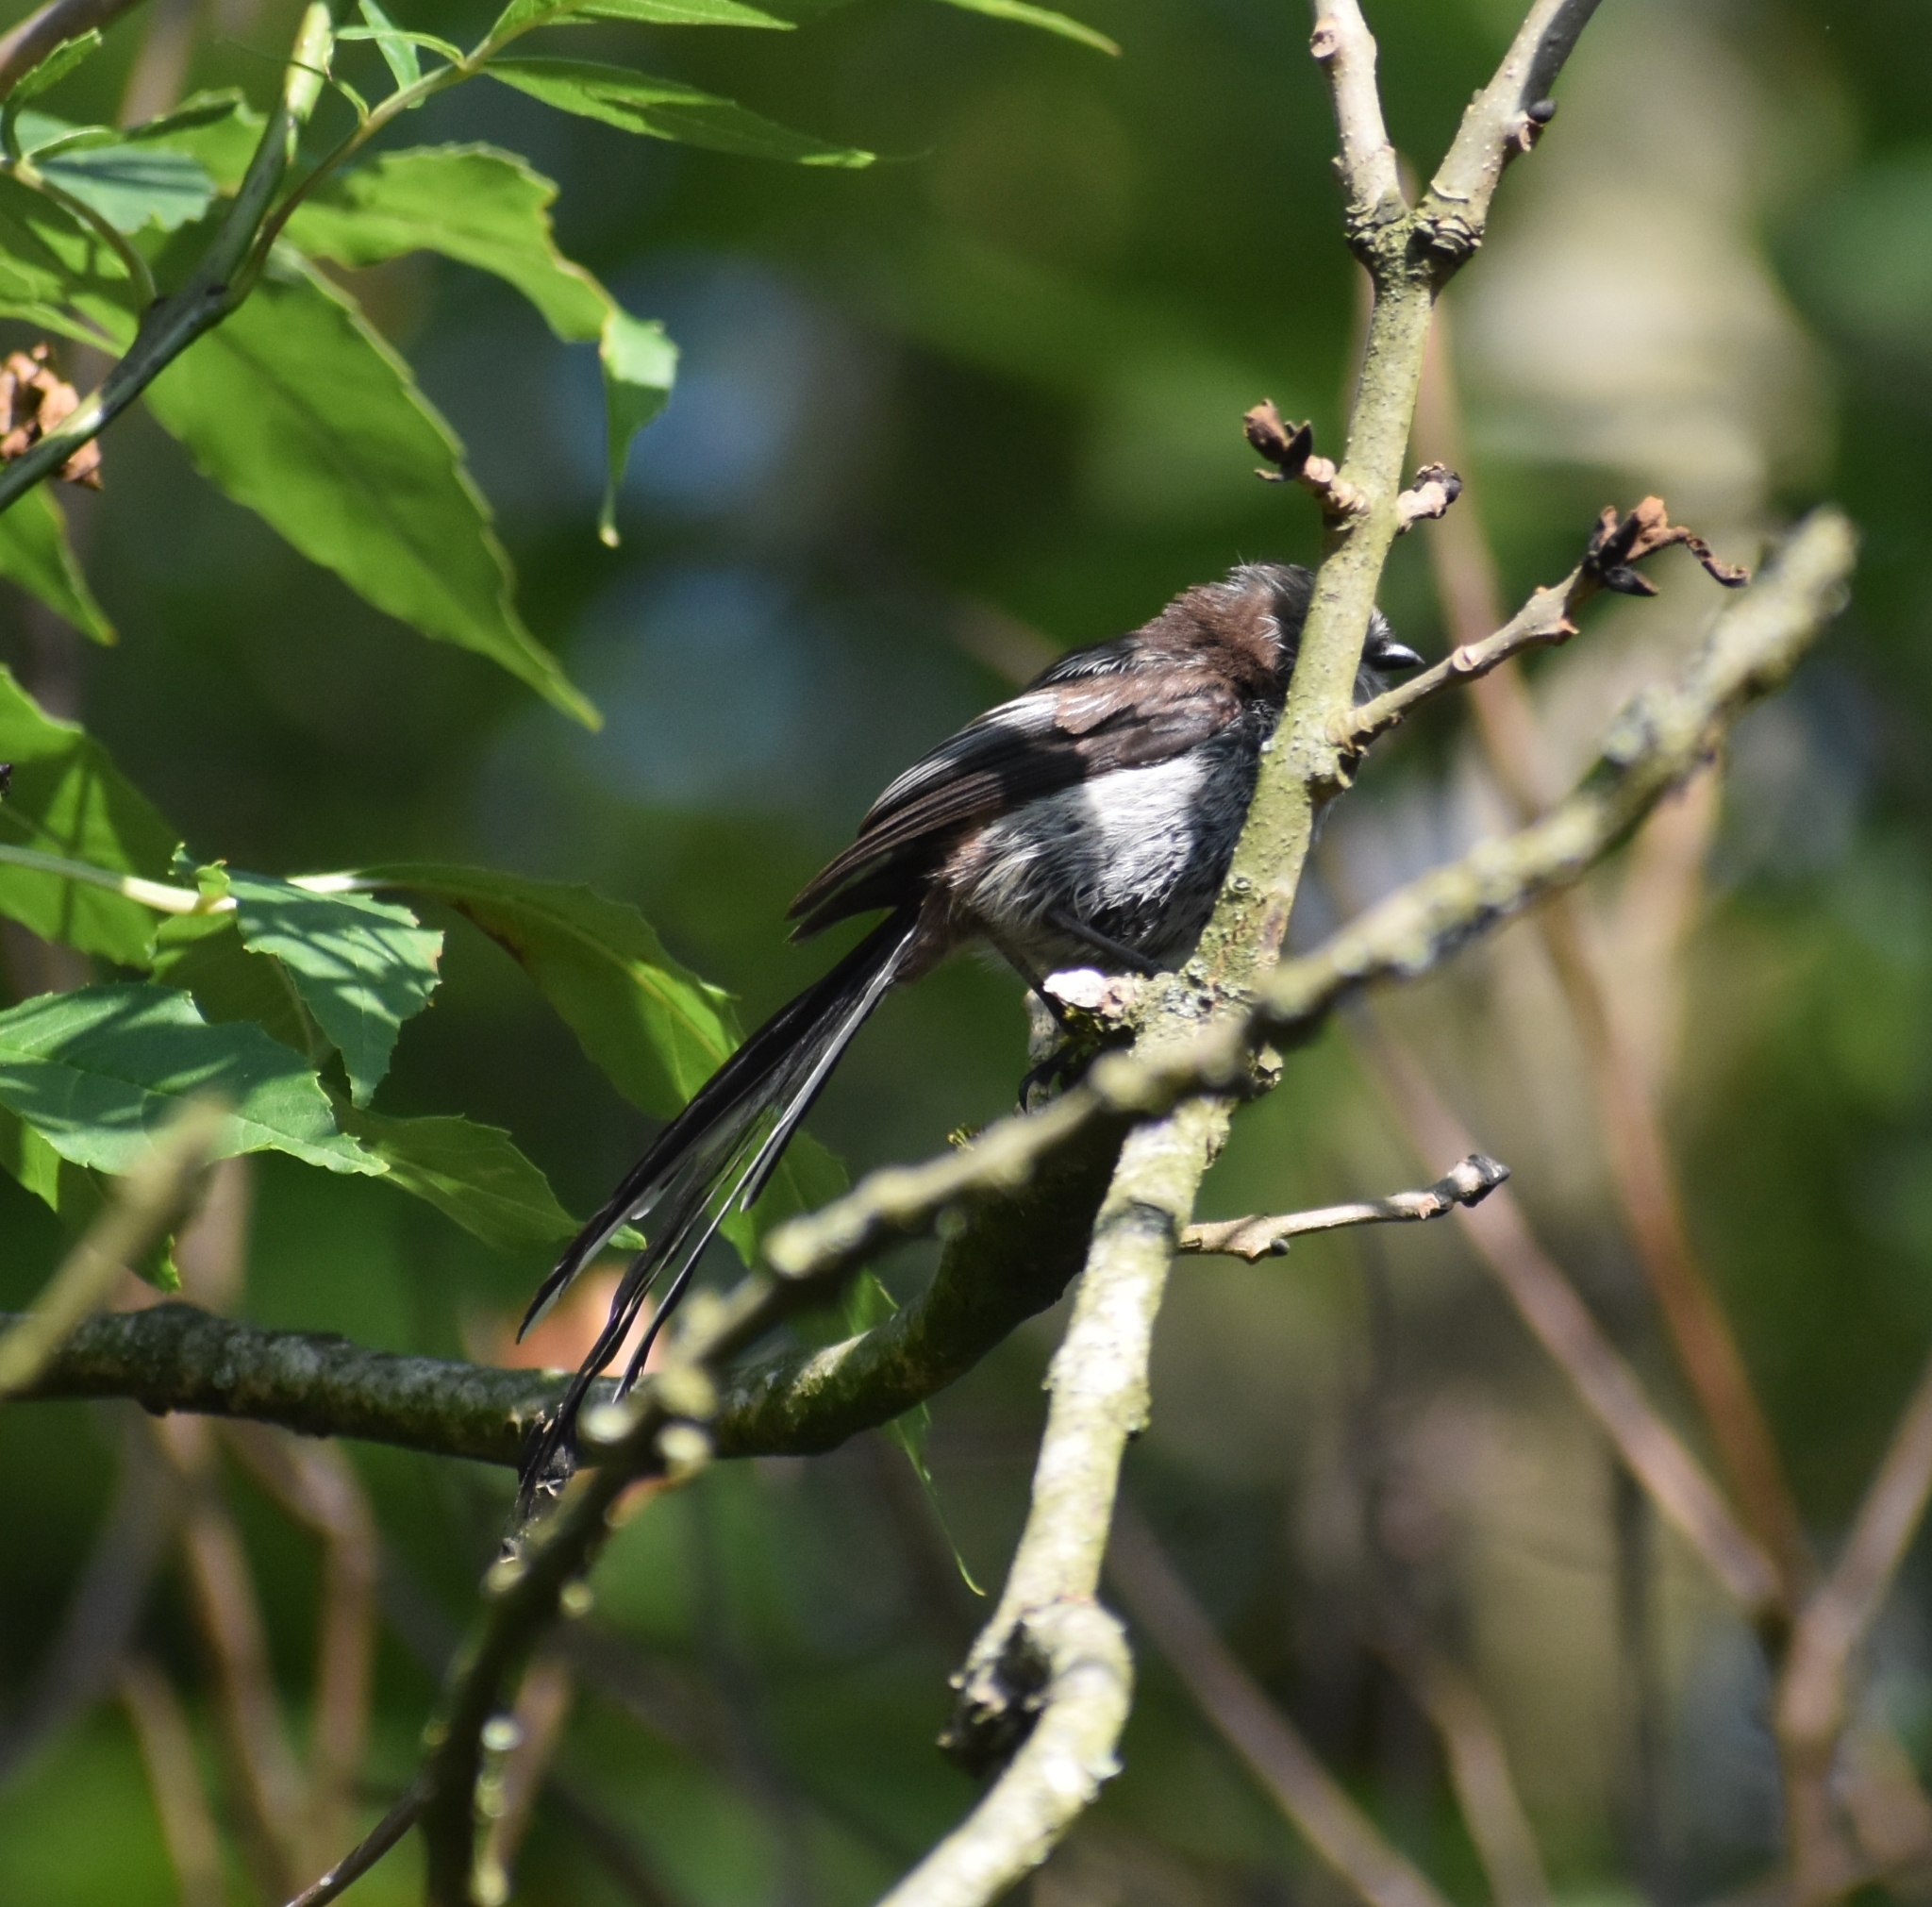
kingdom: Animalia
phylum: Chordata
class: Aves
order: Passeriformes
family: Aegithalidae
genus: Aegithalos
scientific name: Aegithalos caudatus
